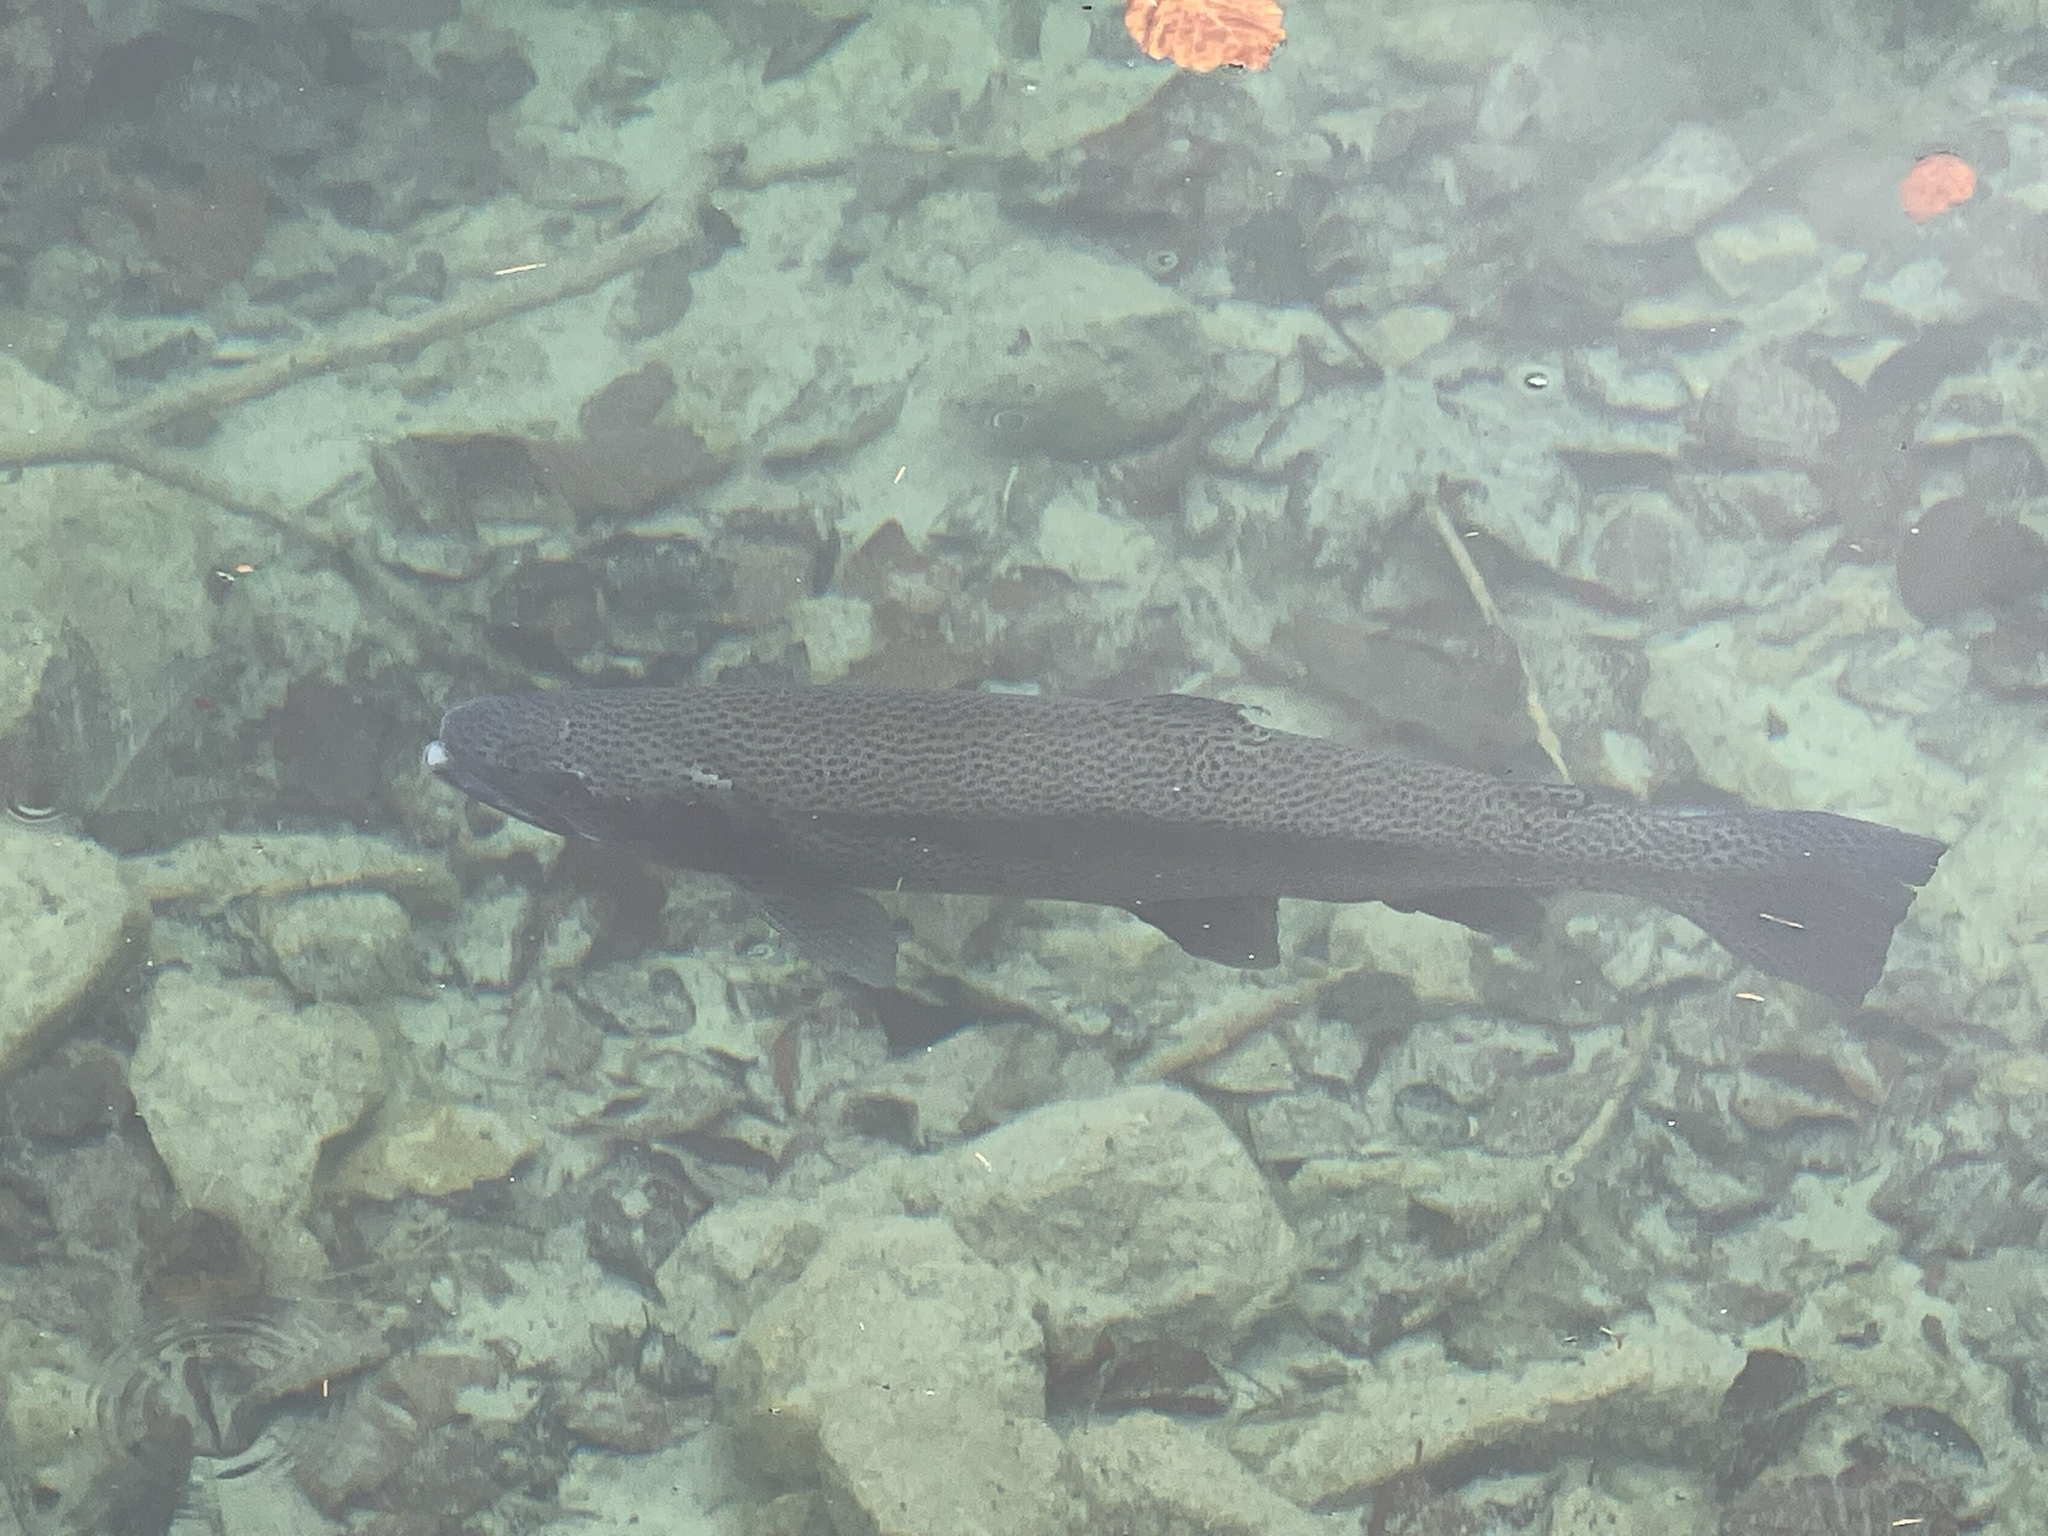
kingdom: Animalia
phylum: Chordata
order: Salmoniformes
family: Salmonidae
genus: Oncorhynchus
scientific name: Oncorhynchus mykiss
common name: Rainbow trout
